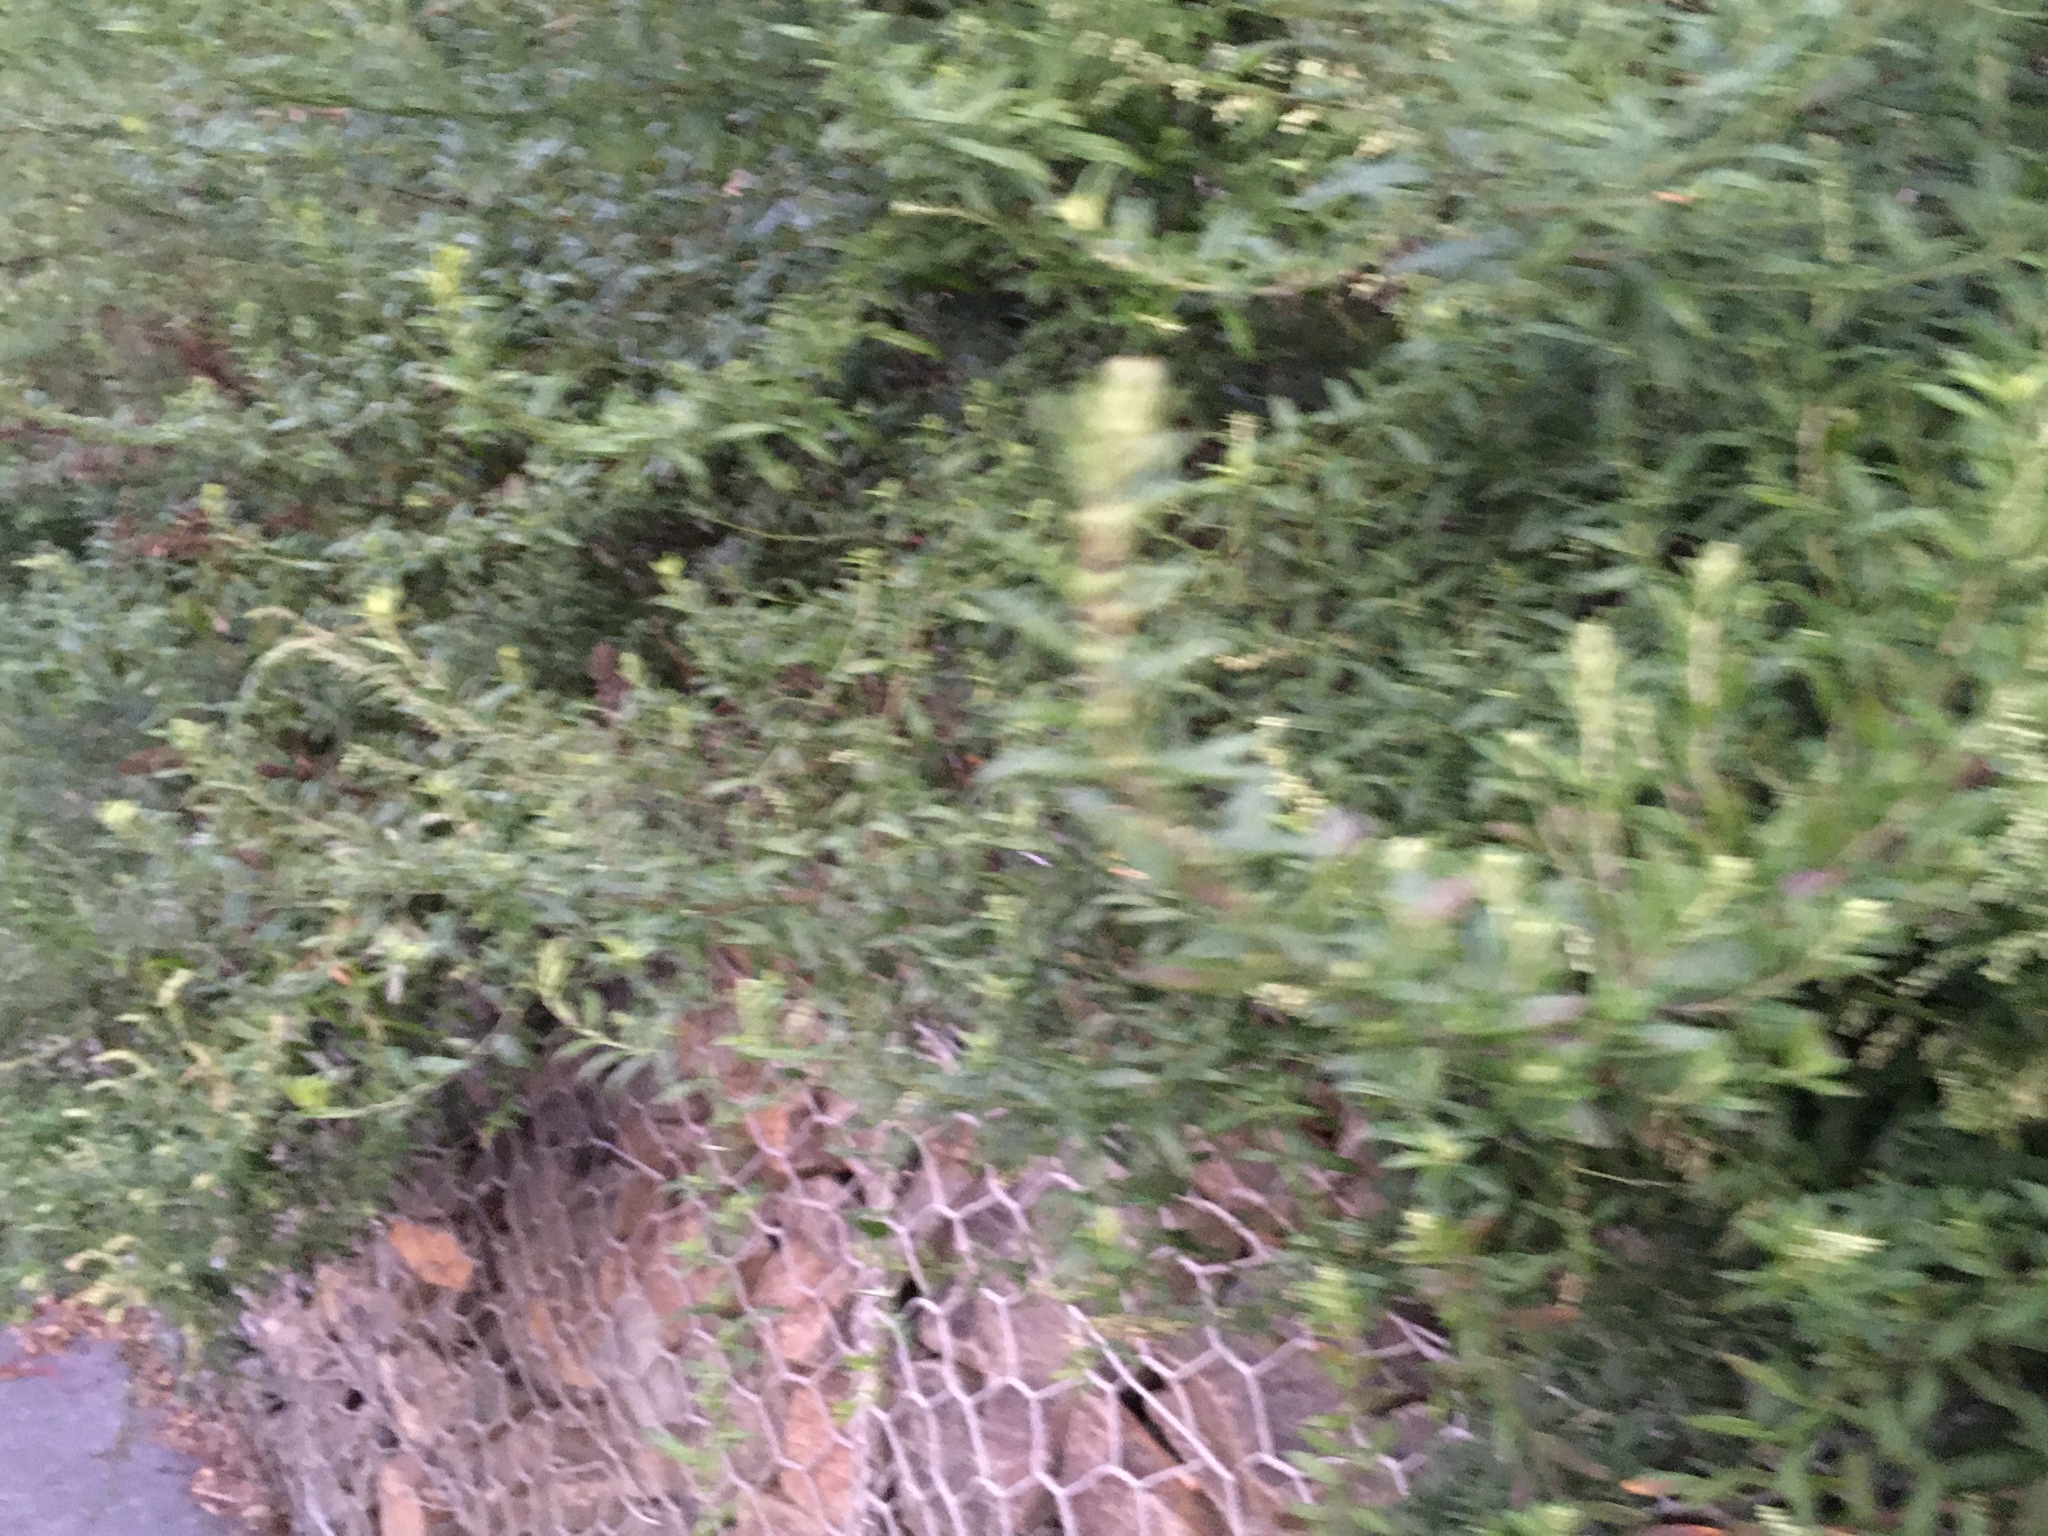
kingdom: Plantae
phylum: Tracheophyta
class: Magnoliopsida
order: Asterales
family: Asteraceae
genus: Artemisia
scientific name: Artemisia vulgaris
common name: Mugwort
